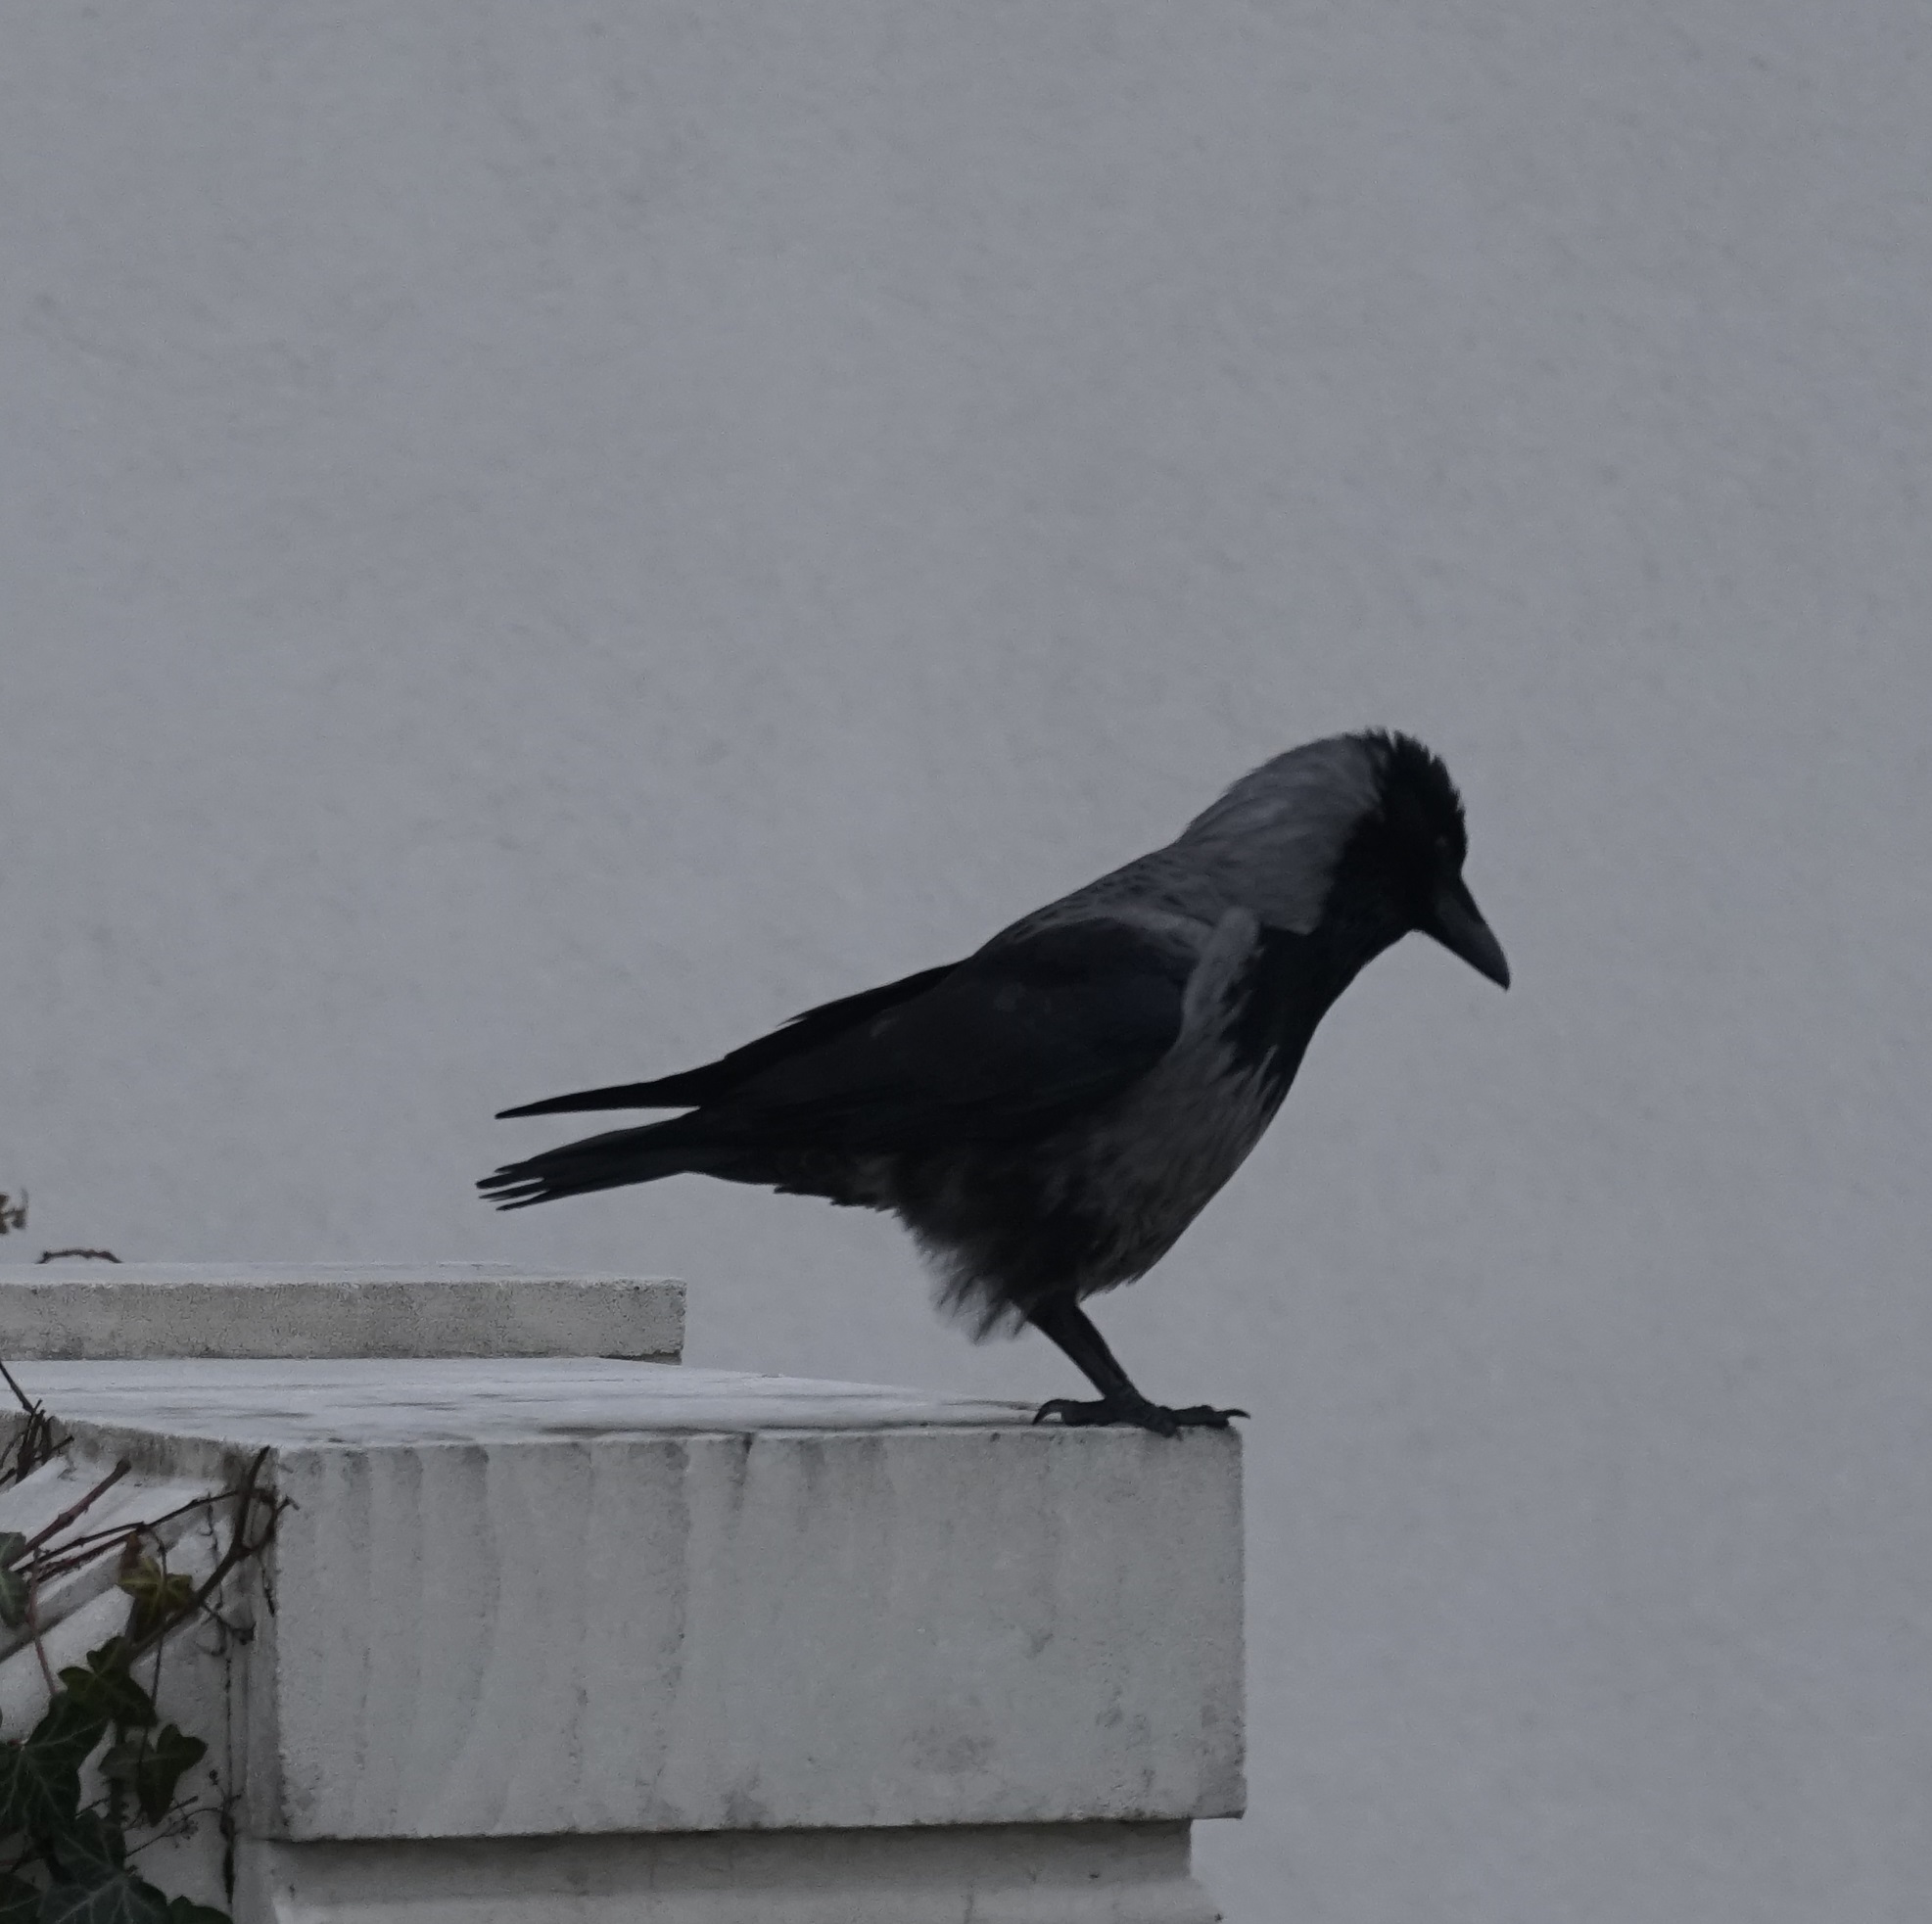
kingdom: Animalia
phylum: Chordata
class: Aves
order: Passeriformes
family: Corvidae
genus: Corvus
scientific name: Corvus cornix
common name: Hooded crow
